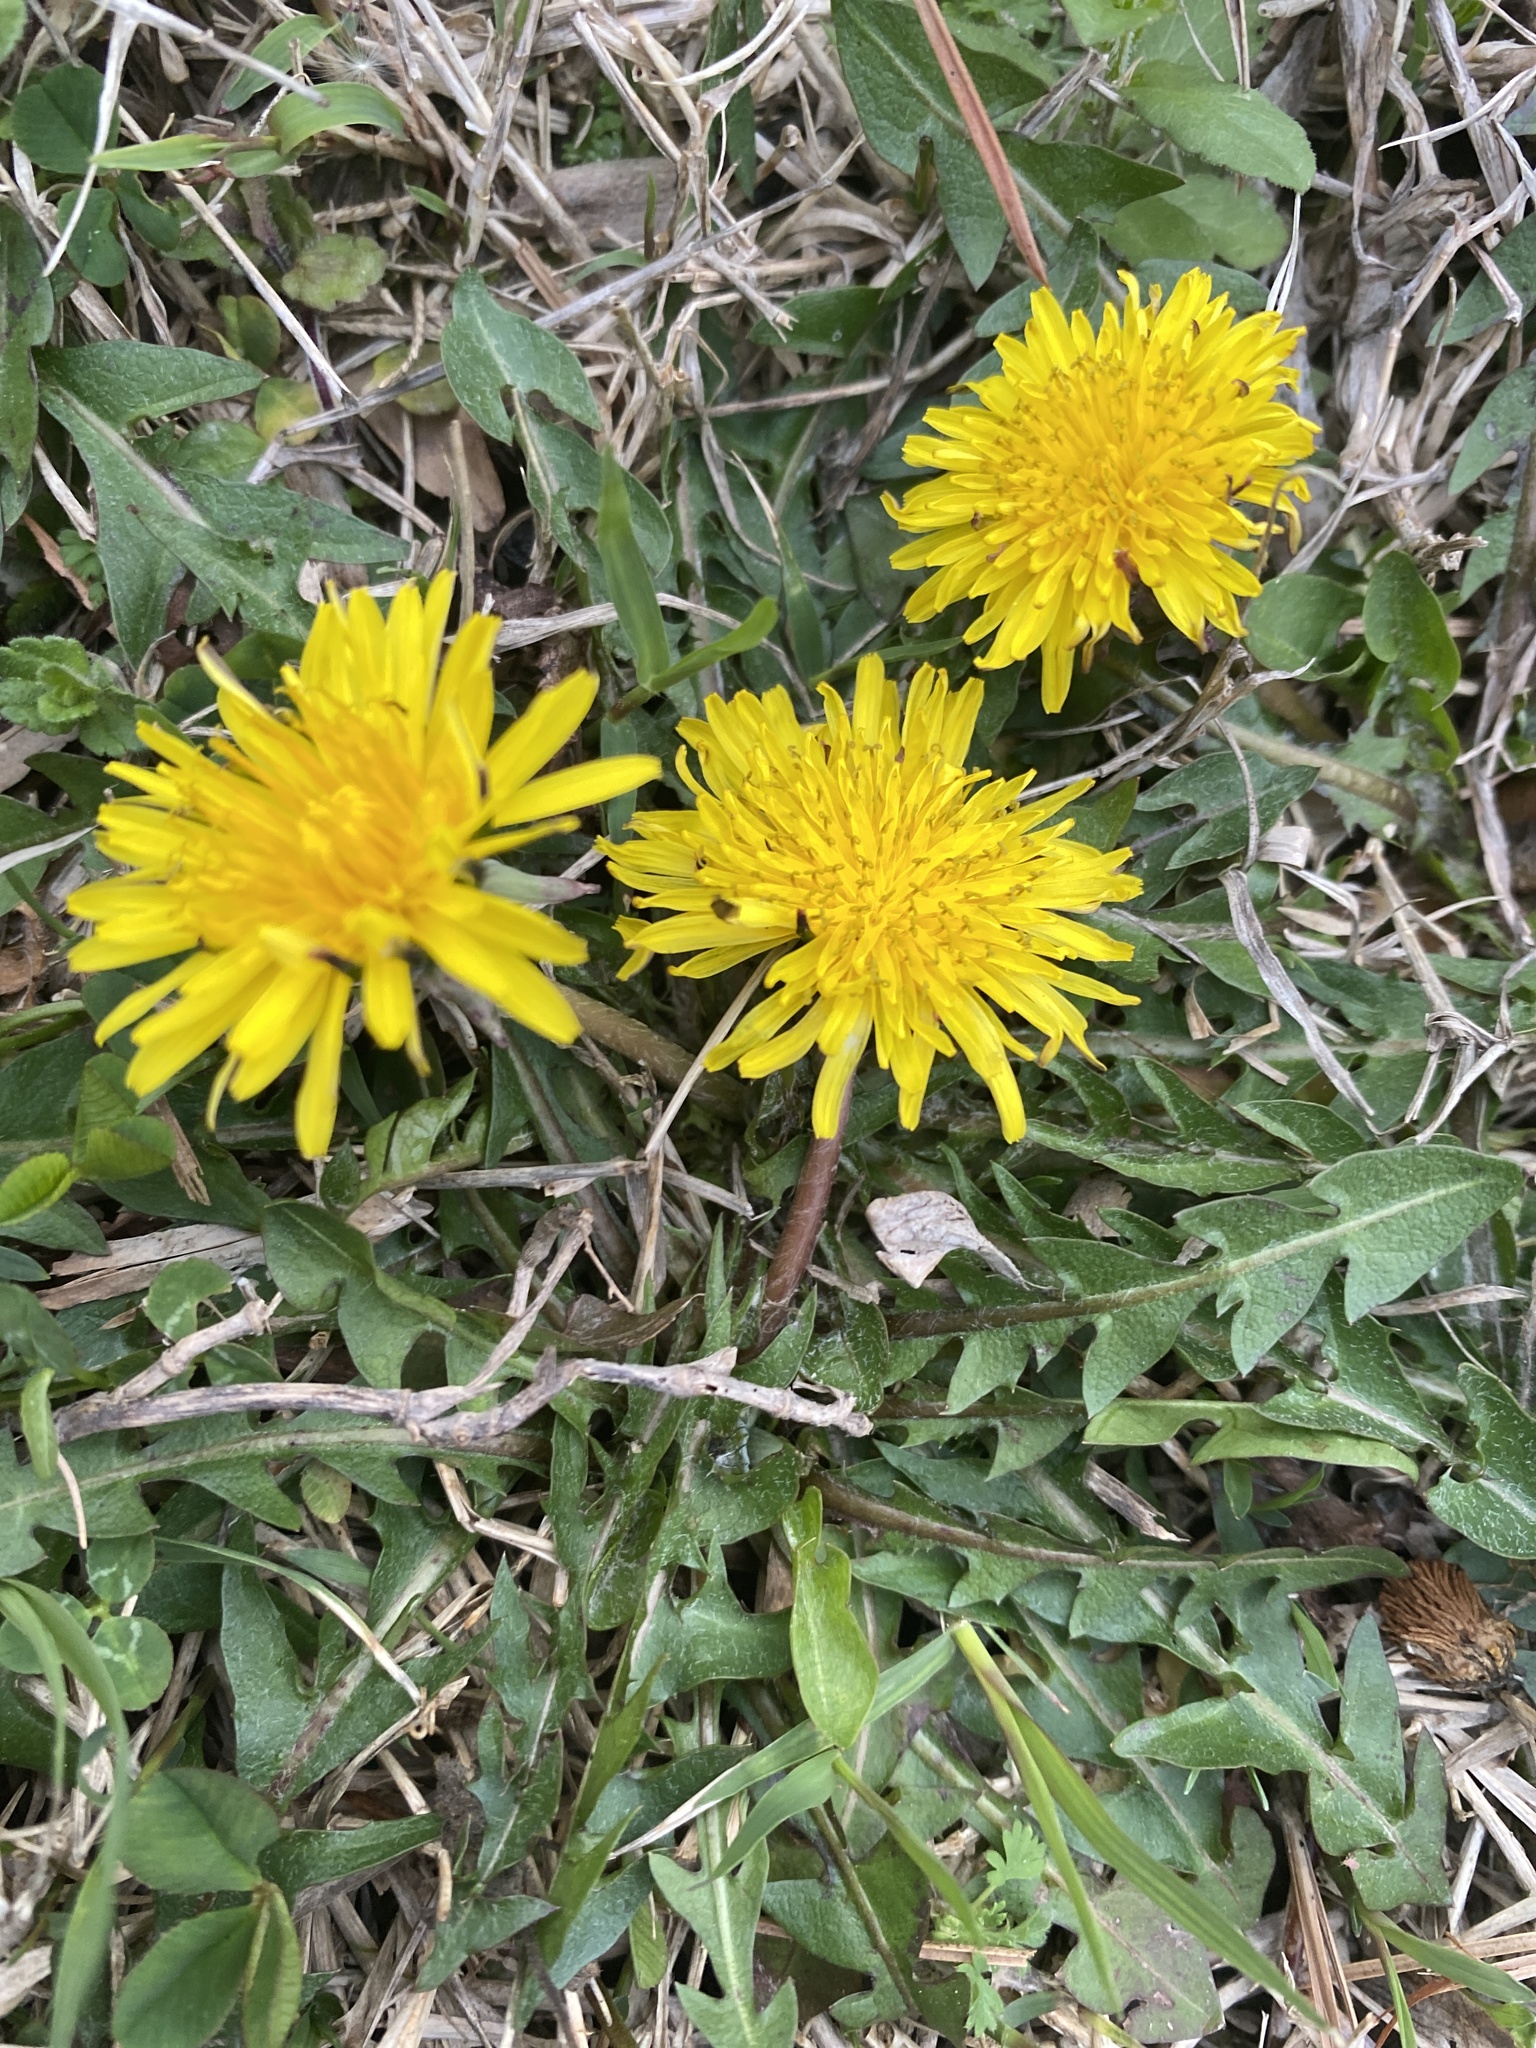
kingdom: Plantae
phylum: Tracheophyta
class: Magnoliopsida
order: Asterales
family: Asteraceae
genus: Taraxacum
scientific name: Taraxacum officinale
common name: Common dandelion
